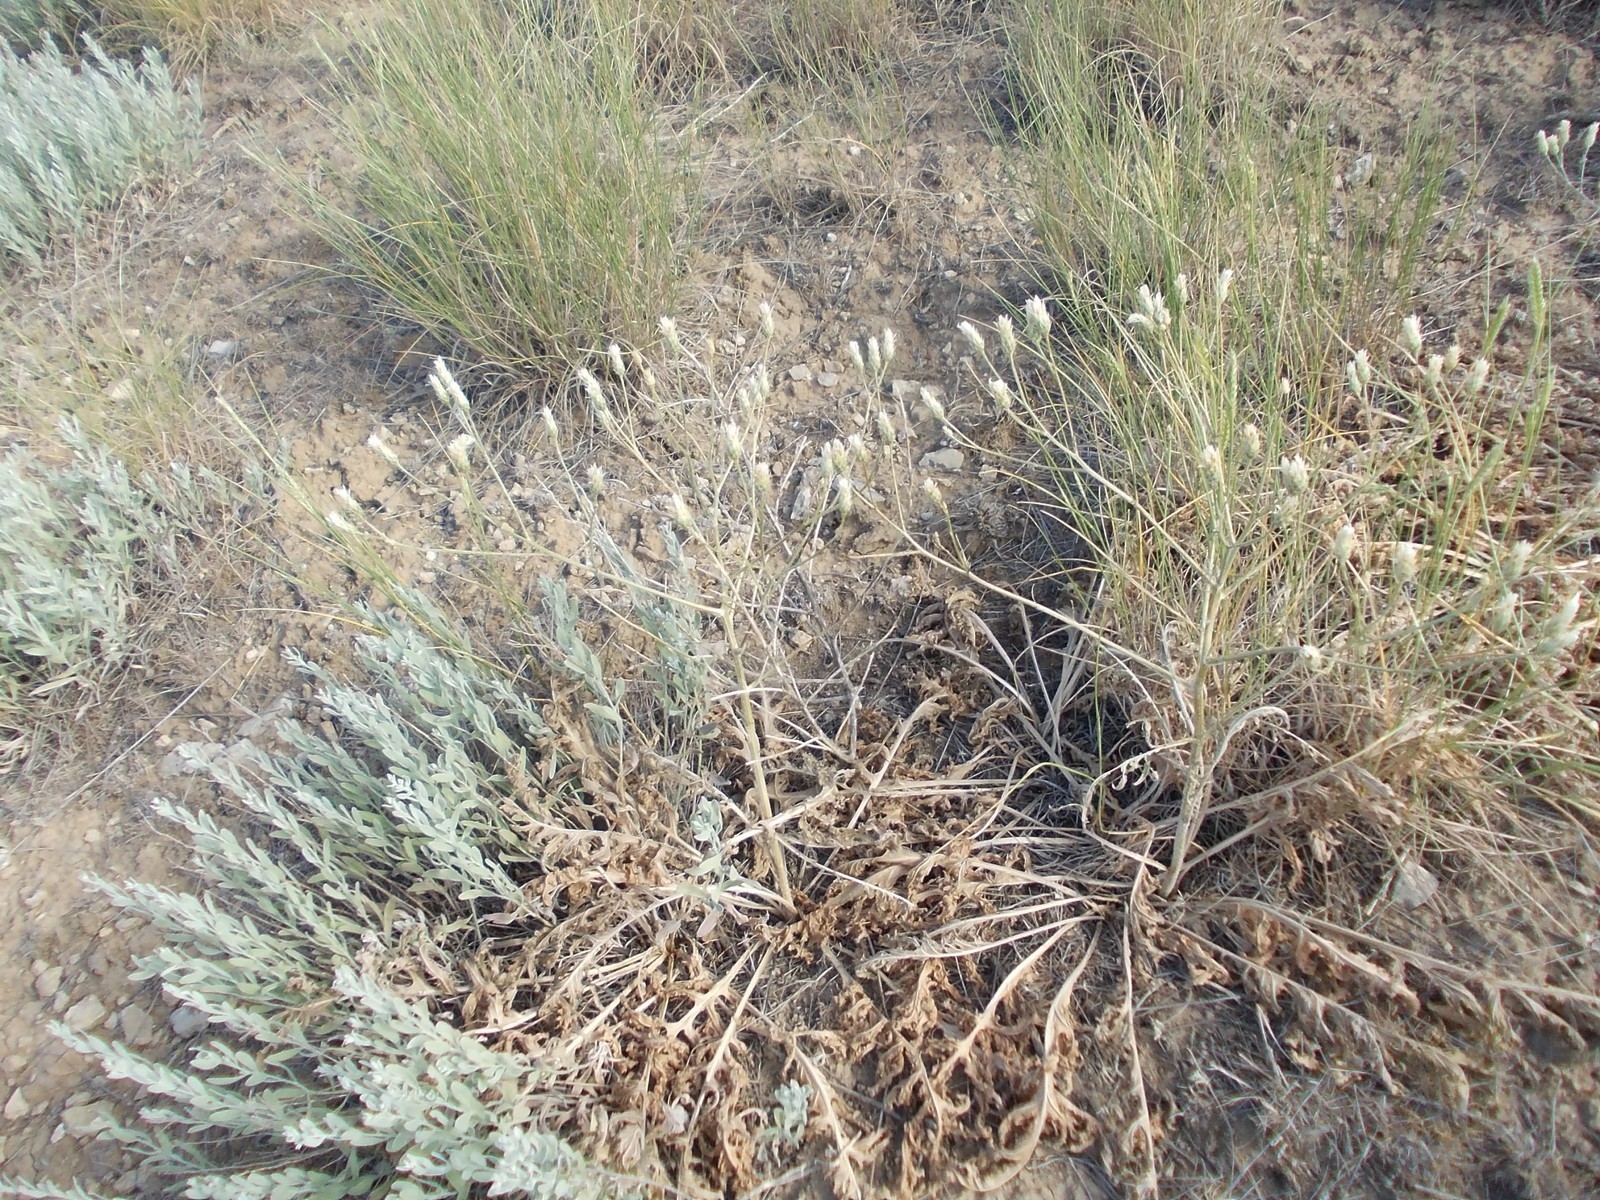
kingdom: Plantae
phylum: Tracheophyta
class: Magnoliopsida
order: Asterales
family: Asteraceae
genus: Klasea
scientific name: Klasea erucifolia
